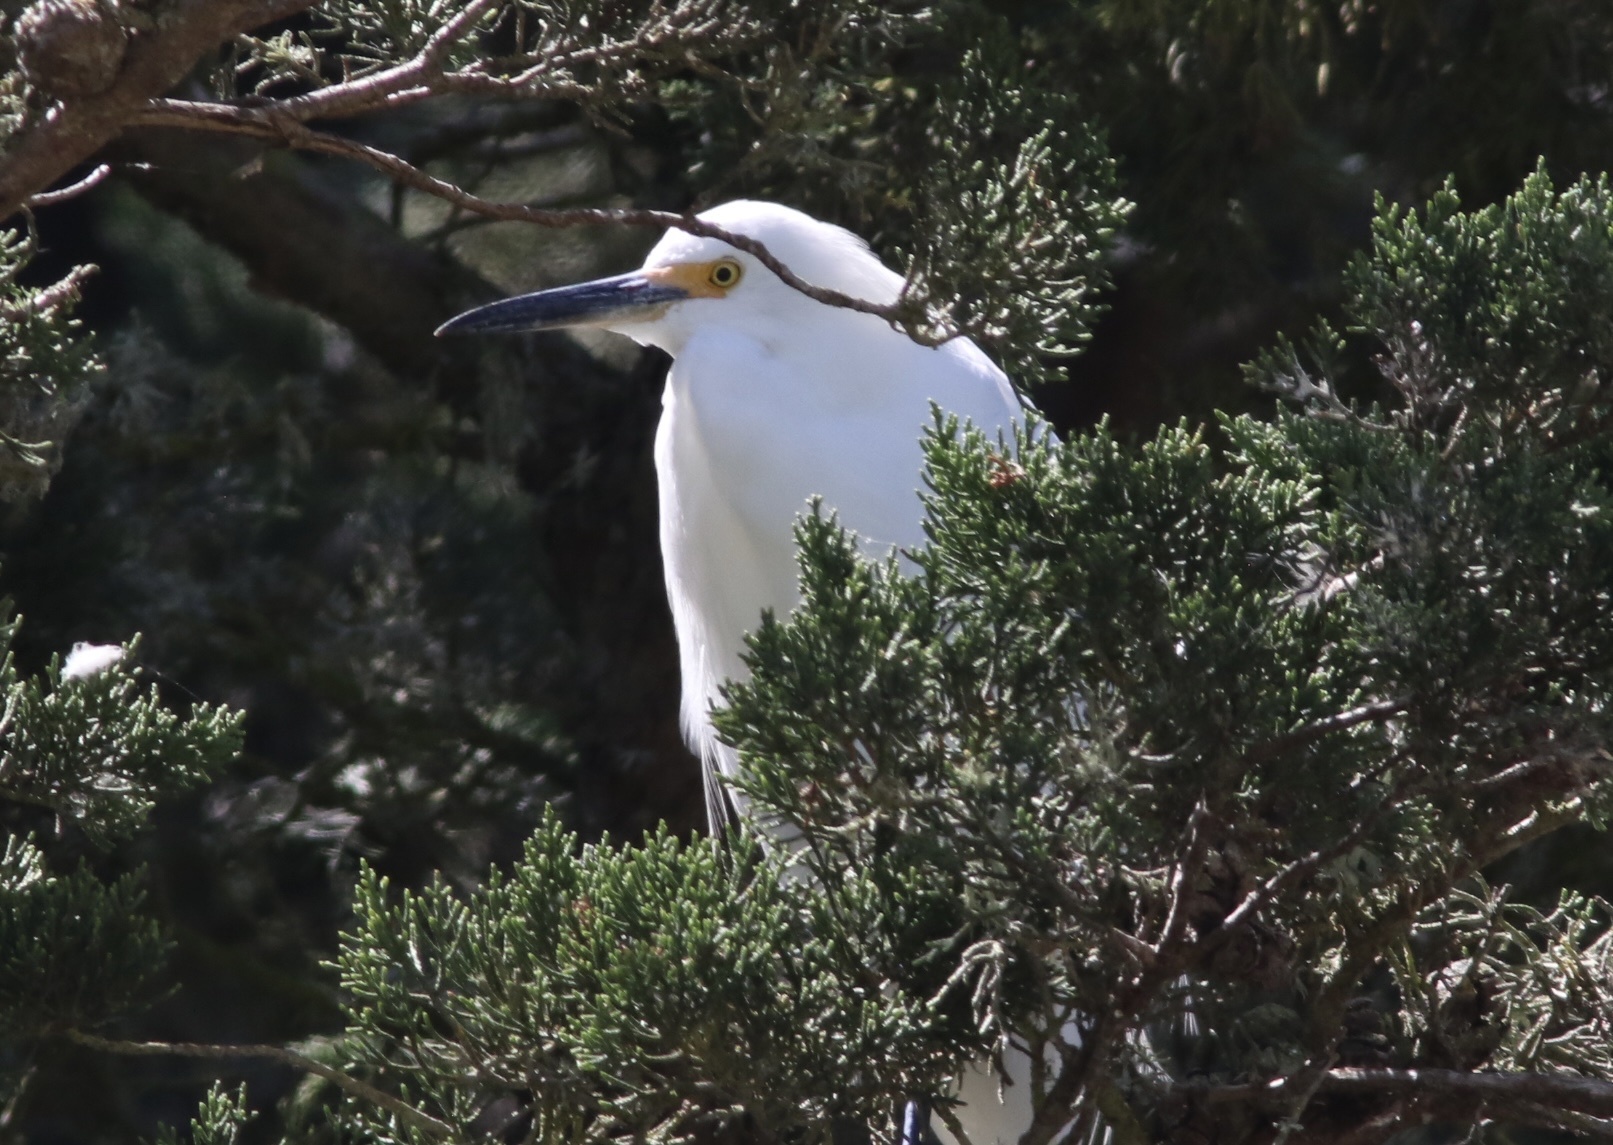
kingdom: Animalia
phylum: Chordata
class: Aves
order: Pelecaniformes
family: Ardeidae
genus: Egretta
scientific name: Egretta thula
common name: Snowy egret
